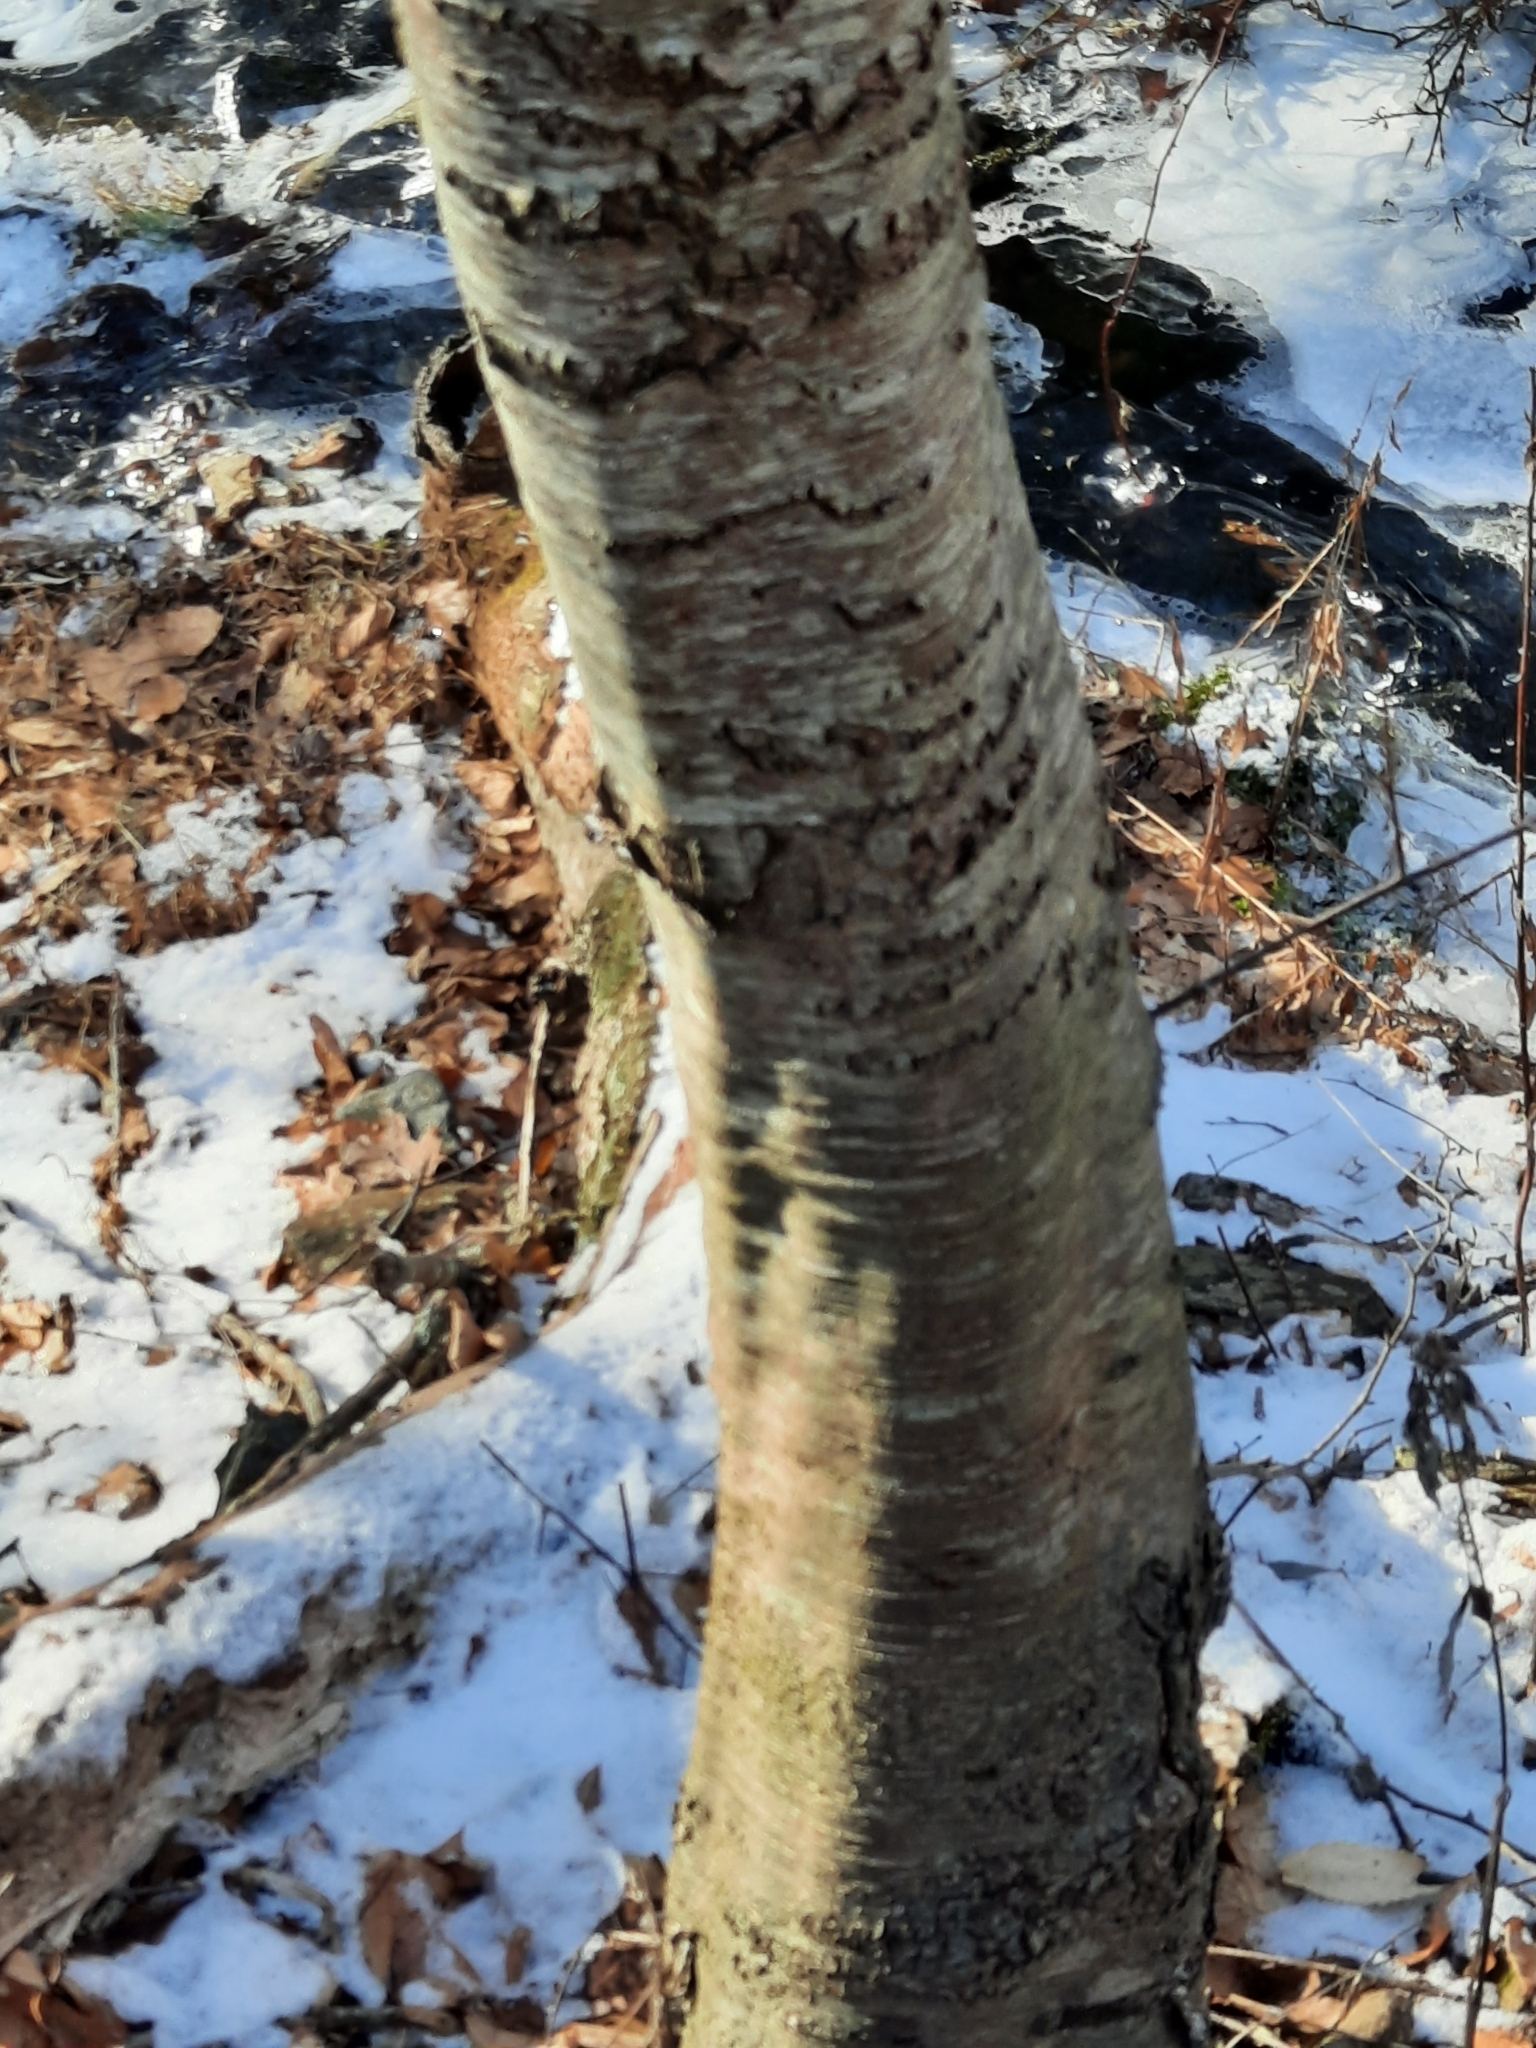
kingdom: Plantae
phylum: Tracheophyta
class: Magnoliopsida
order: Fagales
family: Betulaceae
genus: Carpinus
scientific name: Carpinus caroliniana
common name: American hornbeam
